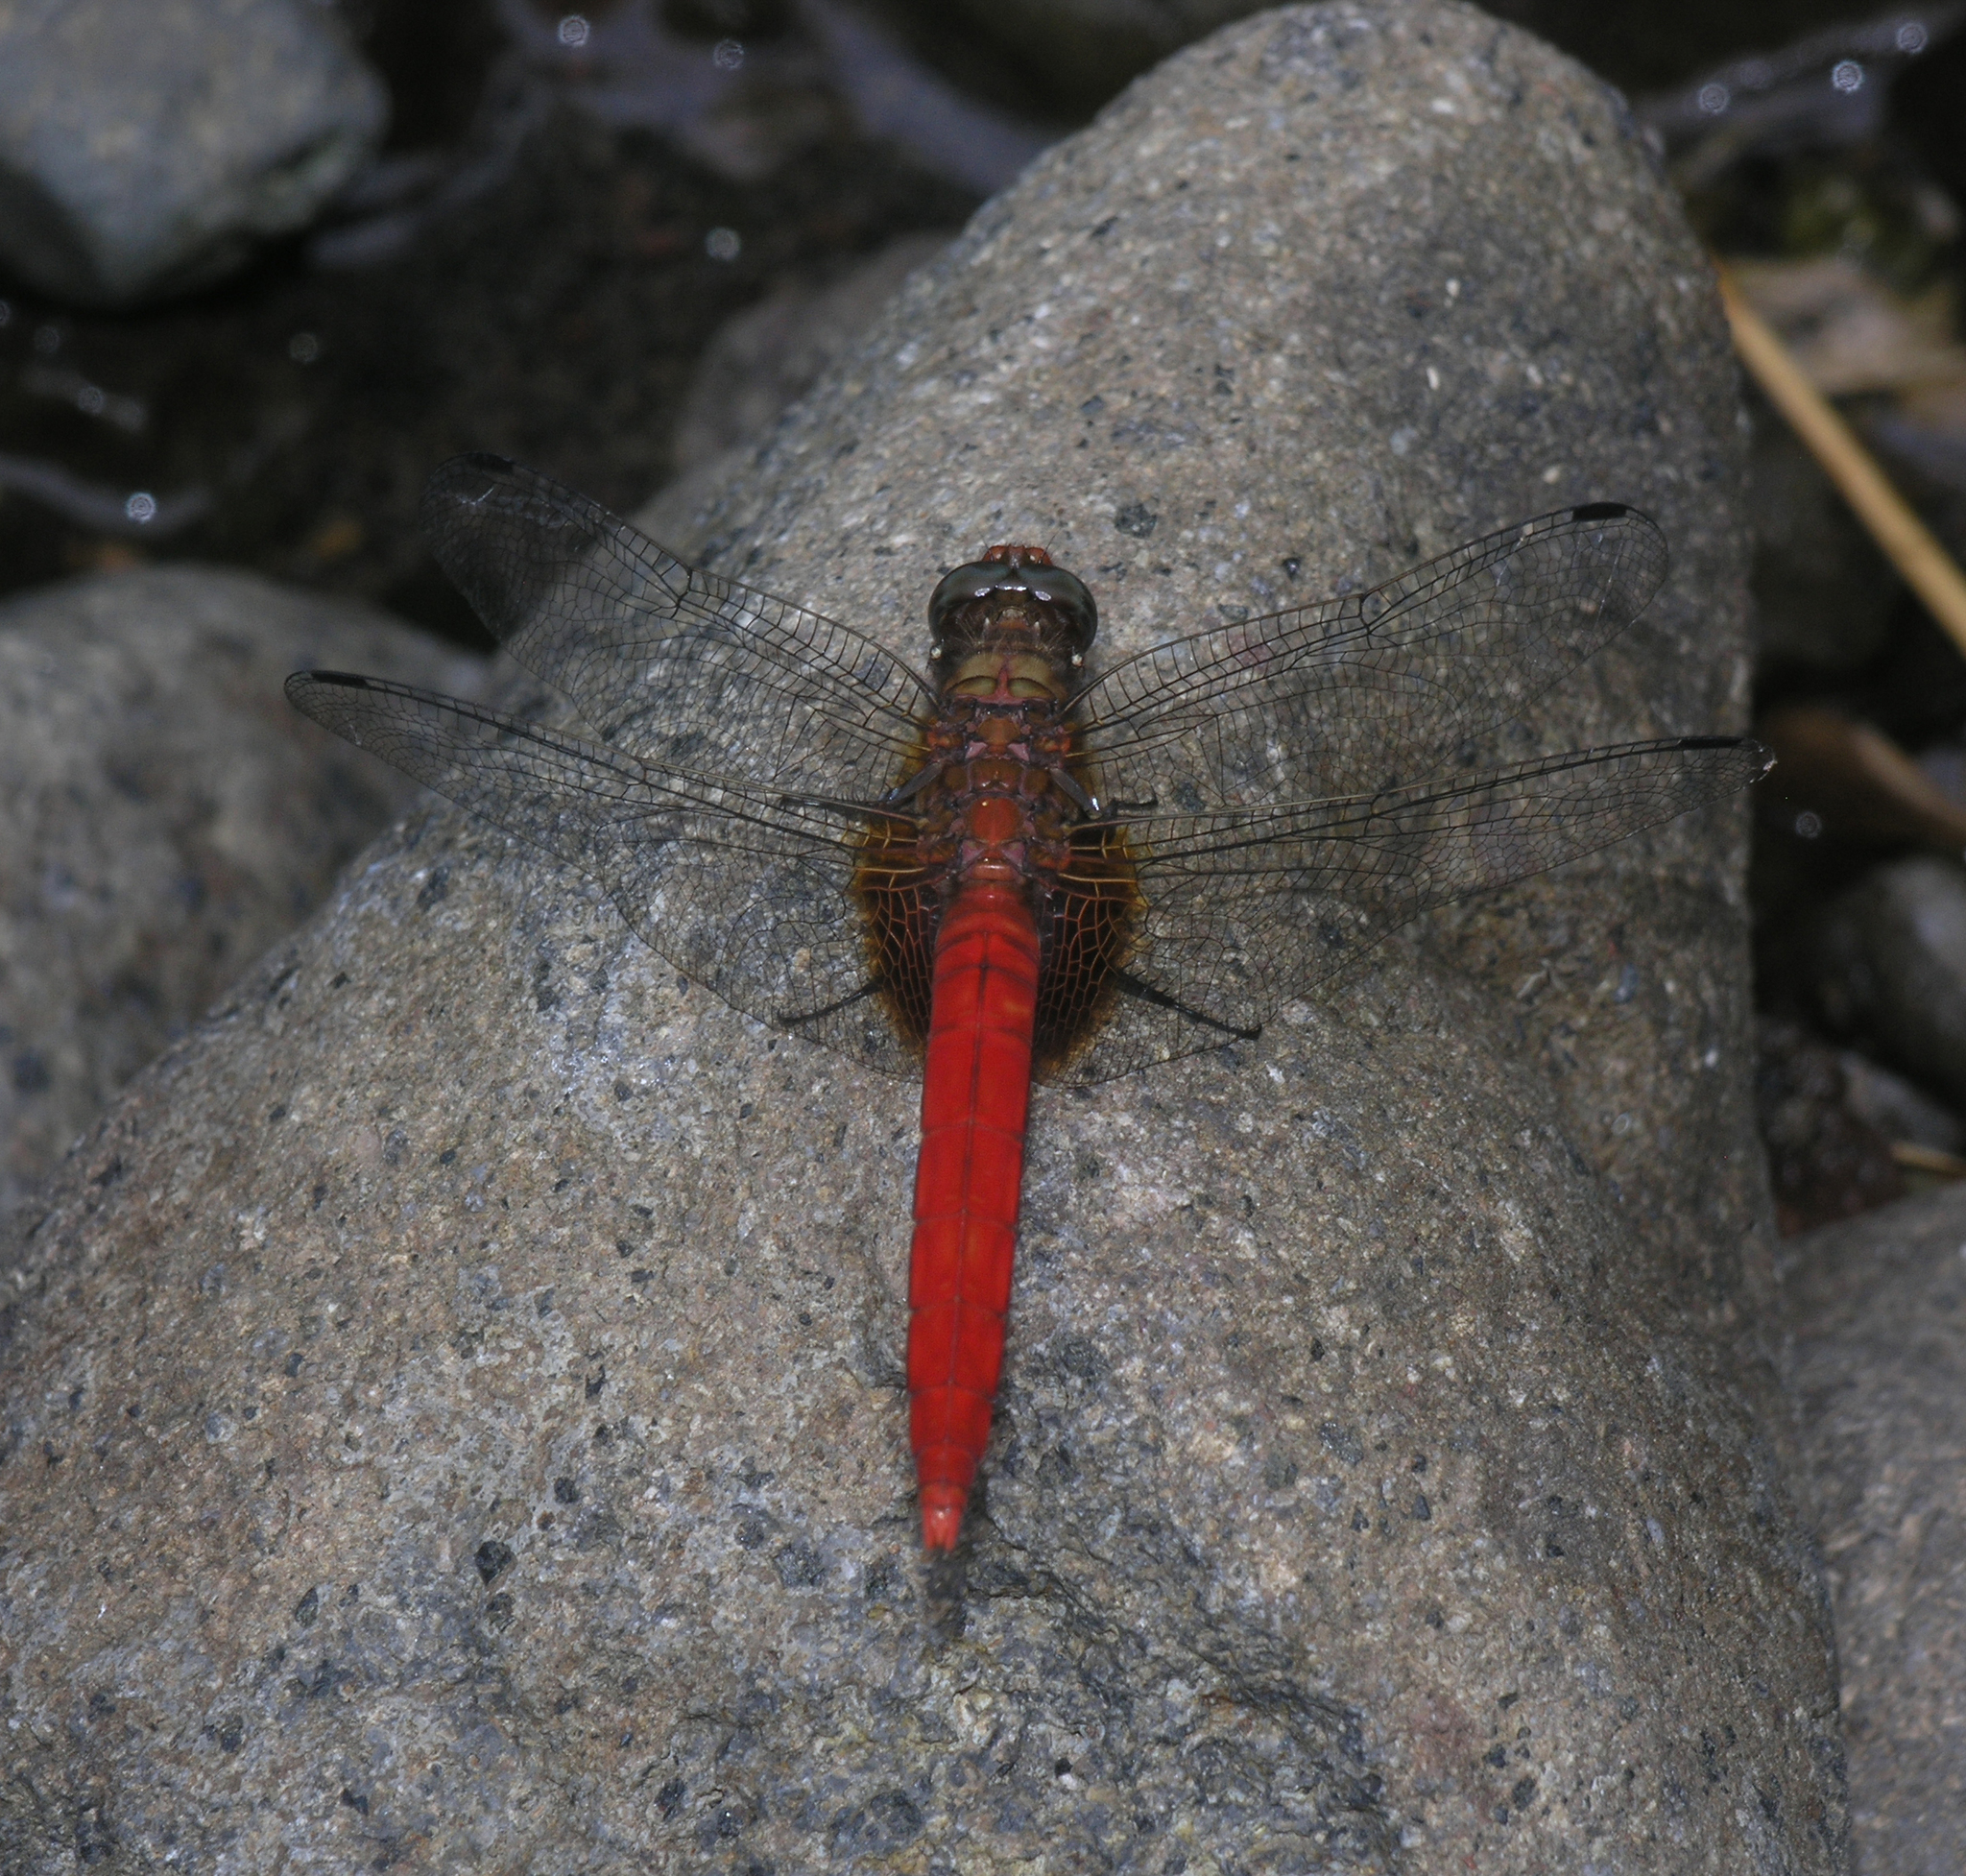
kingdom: Animalia
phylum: Arthropoda
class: Insecta
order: Odonata
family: Libellulidae
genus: Orthetrum
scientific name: Orthetrum testaceum
